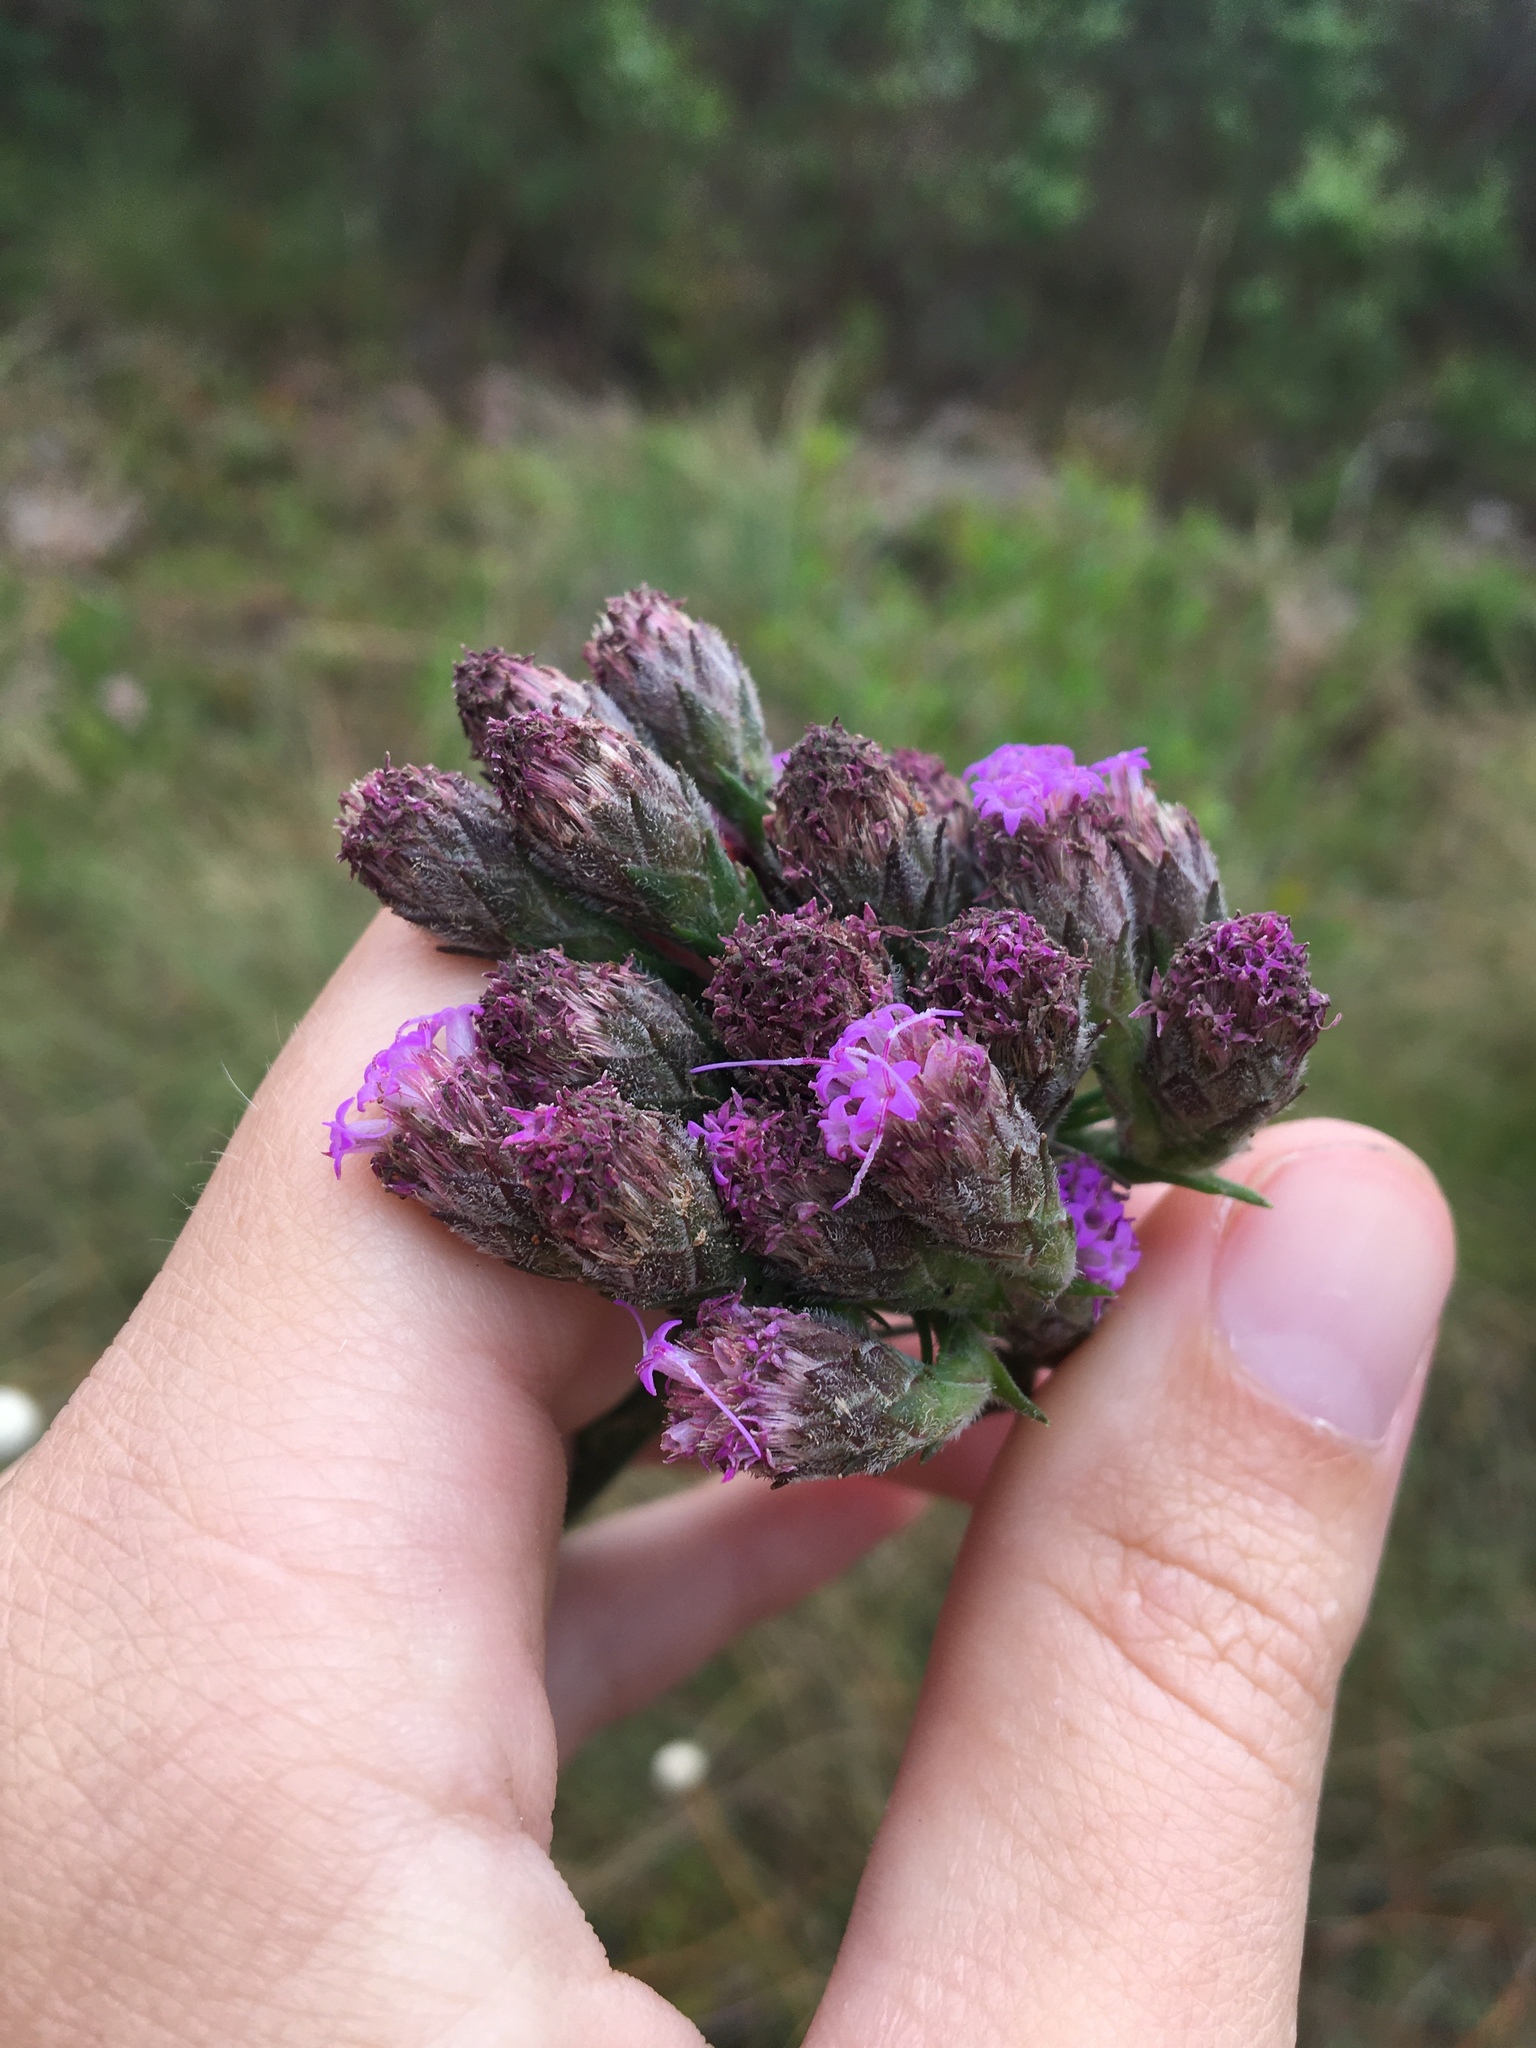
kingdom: Plantae
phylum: Tracheophyta
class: Magnoliopsida
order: Asterales
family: Asteraceae
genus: Carphephorus
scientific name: Carphephorus pseudoliatris
